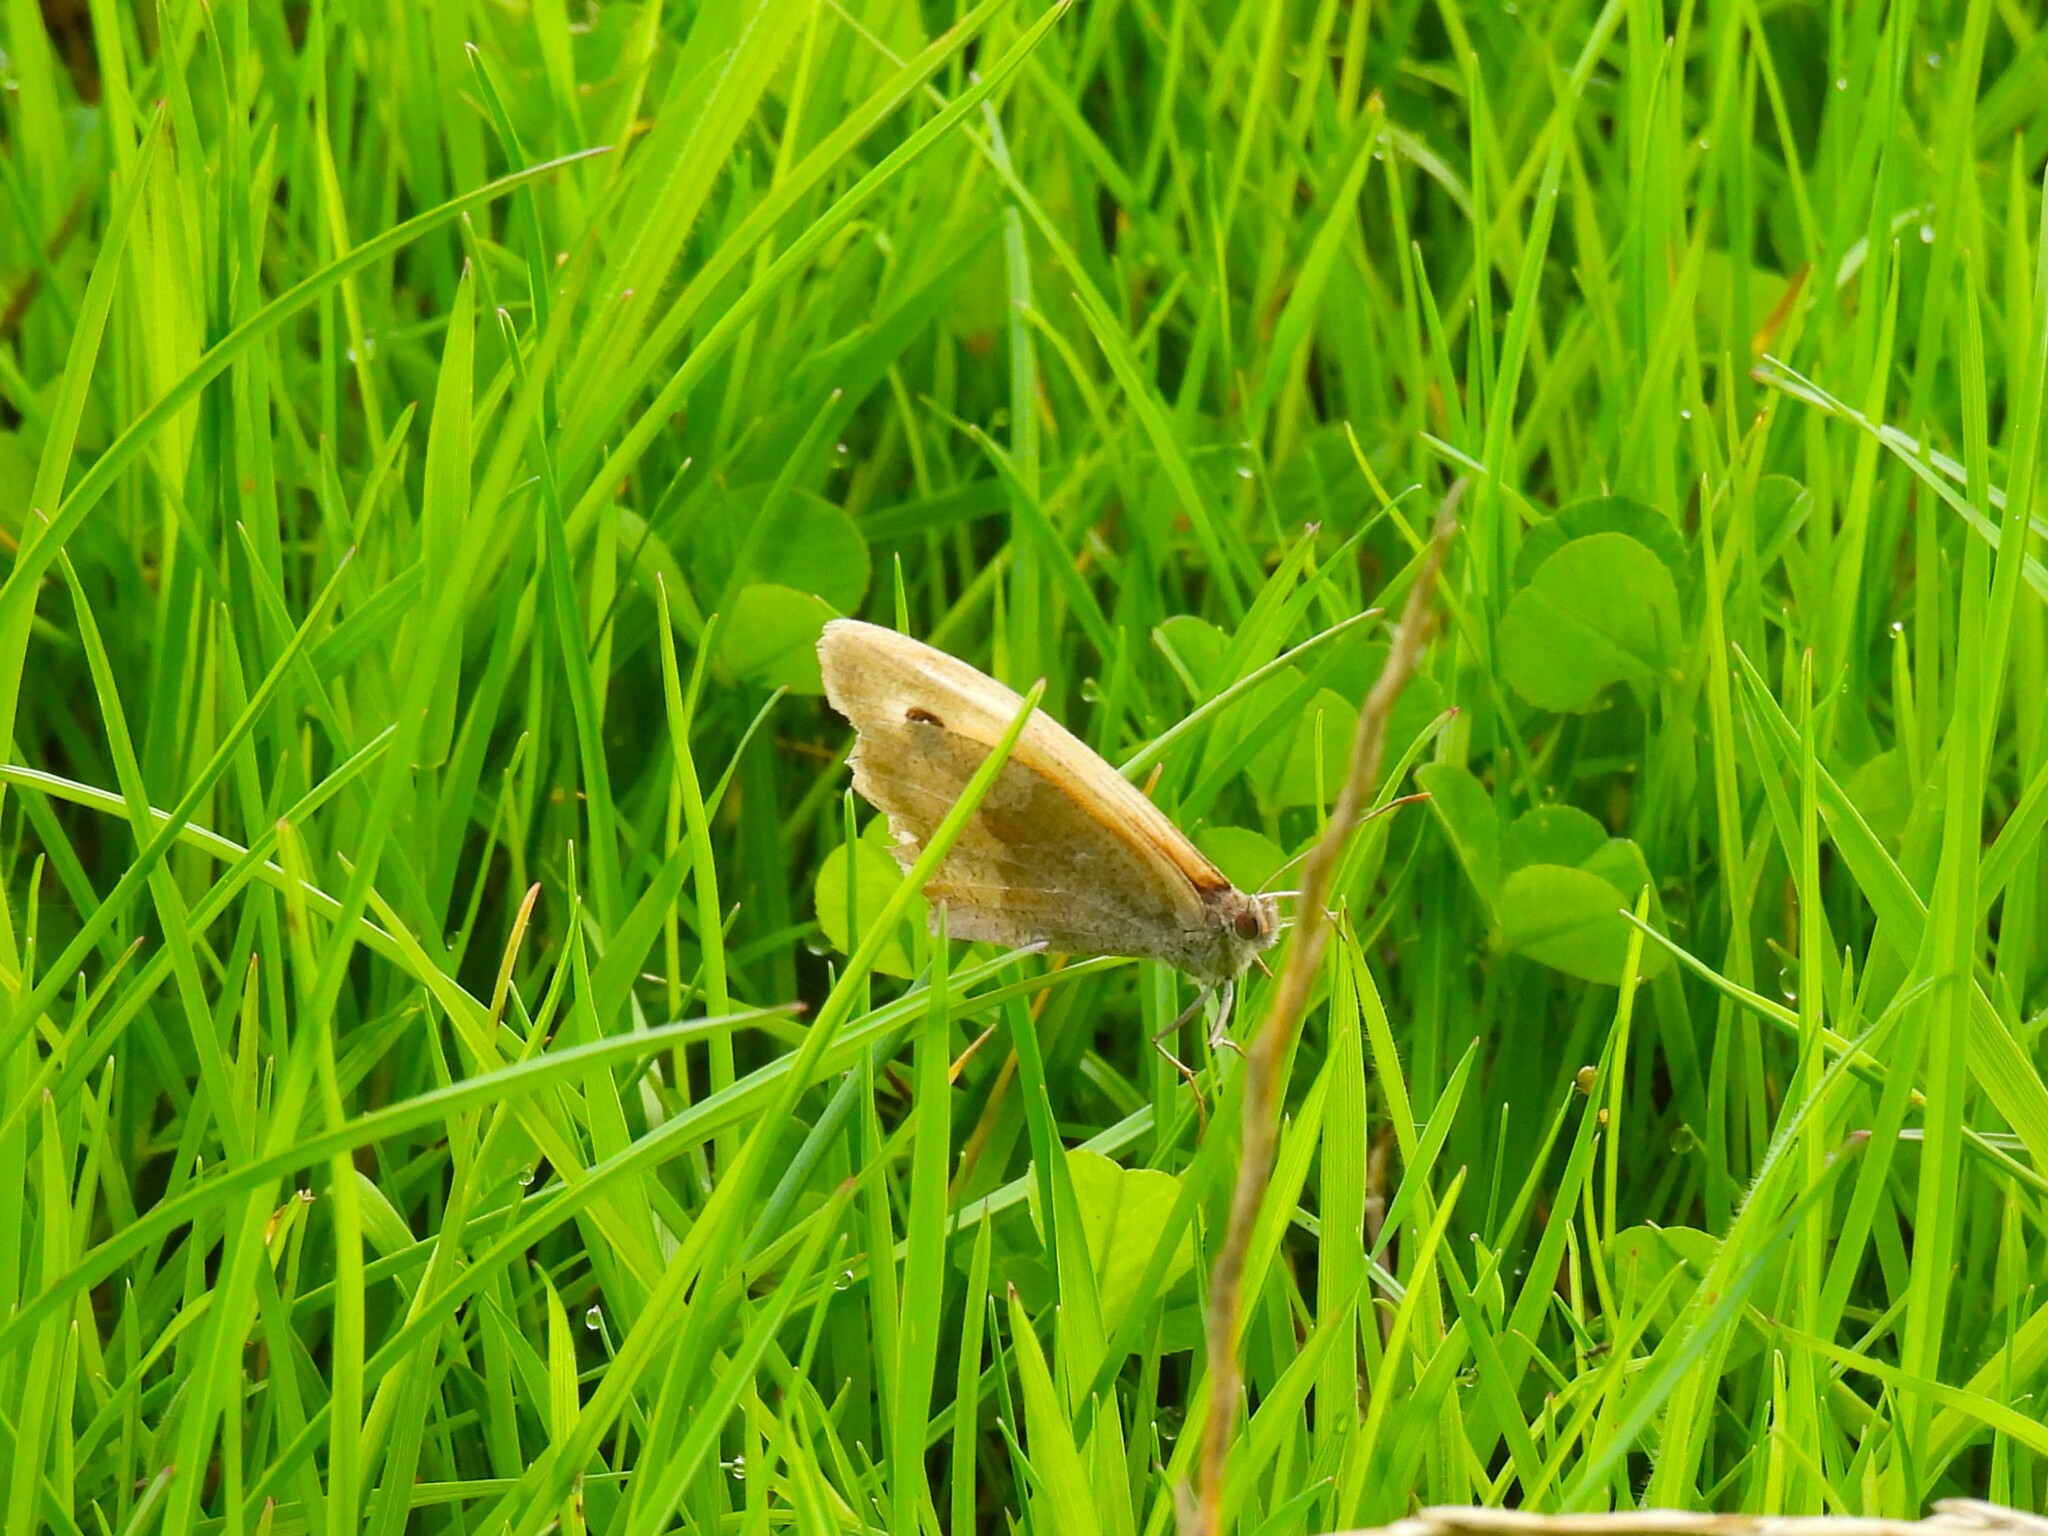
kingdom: Animalia
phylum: Arthropoda
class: Insecta
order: Lepidoptera
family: Nymphalidae
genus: Maniola
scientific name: Maniola jurtina
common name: Meadow brown
